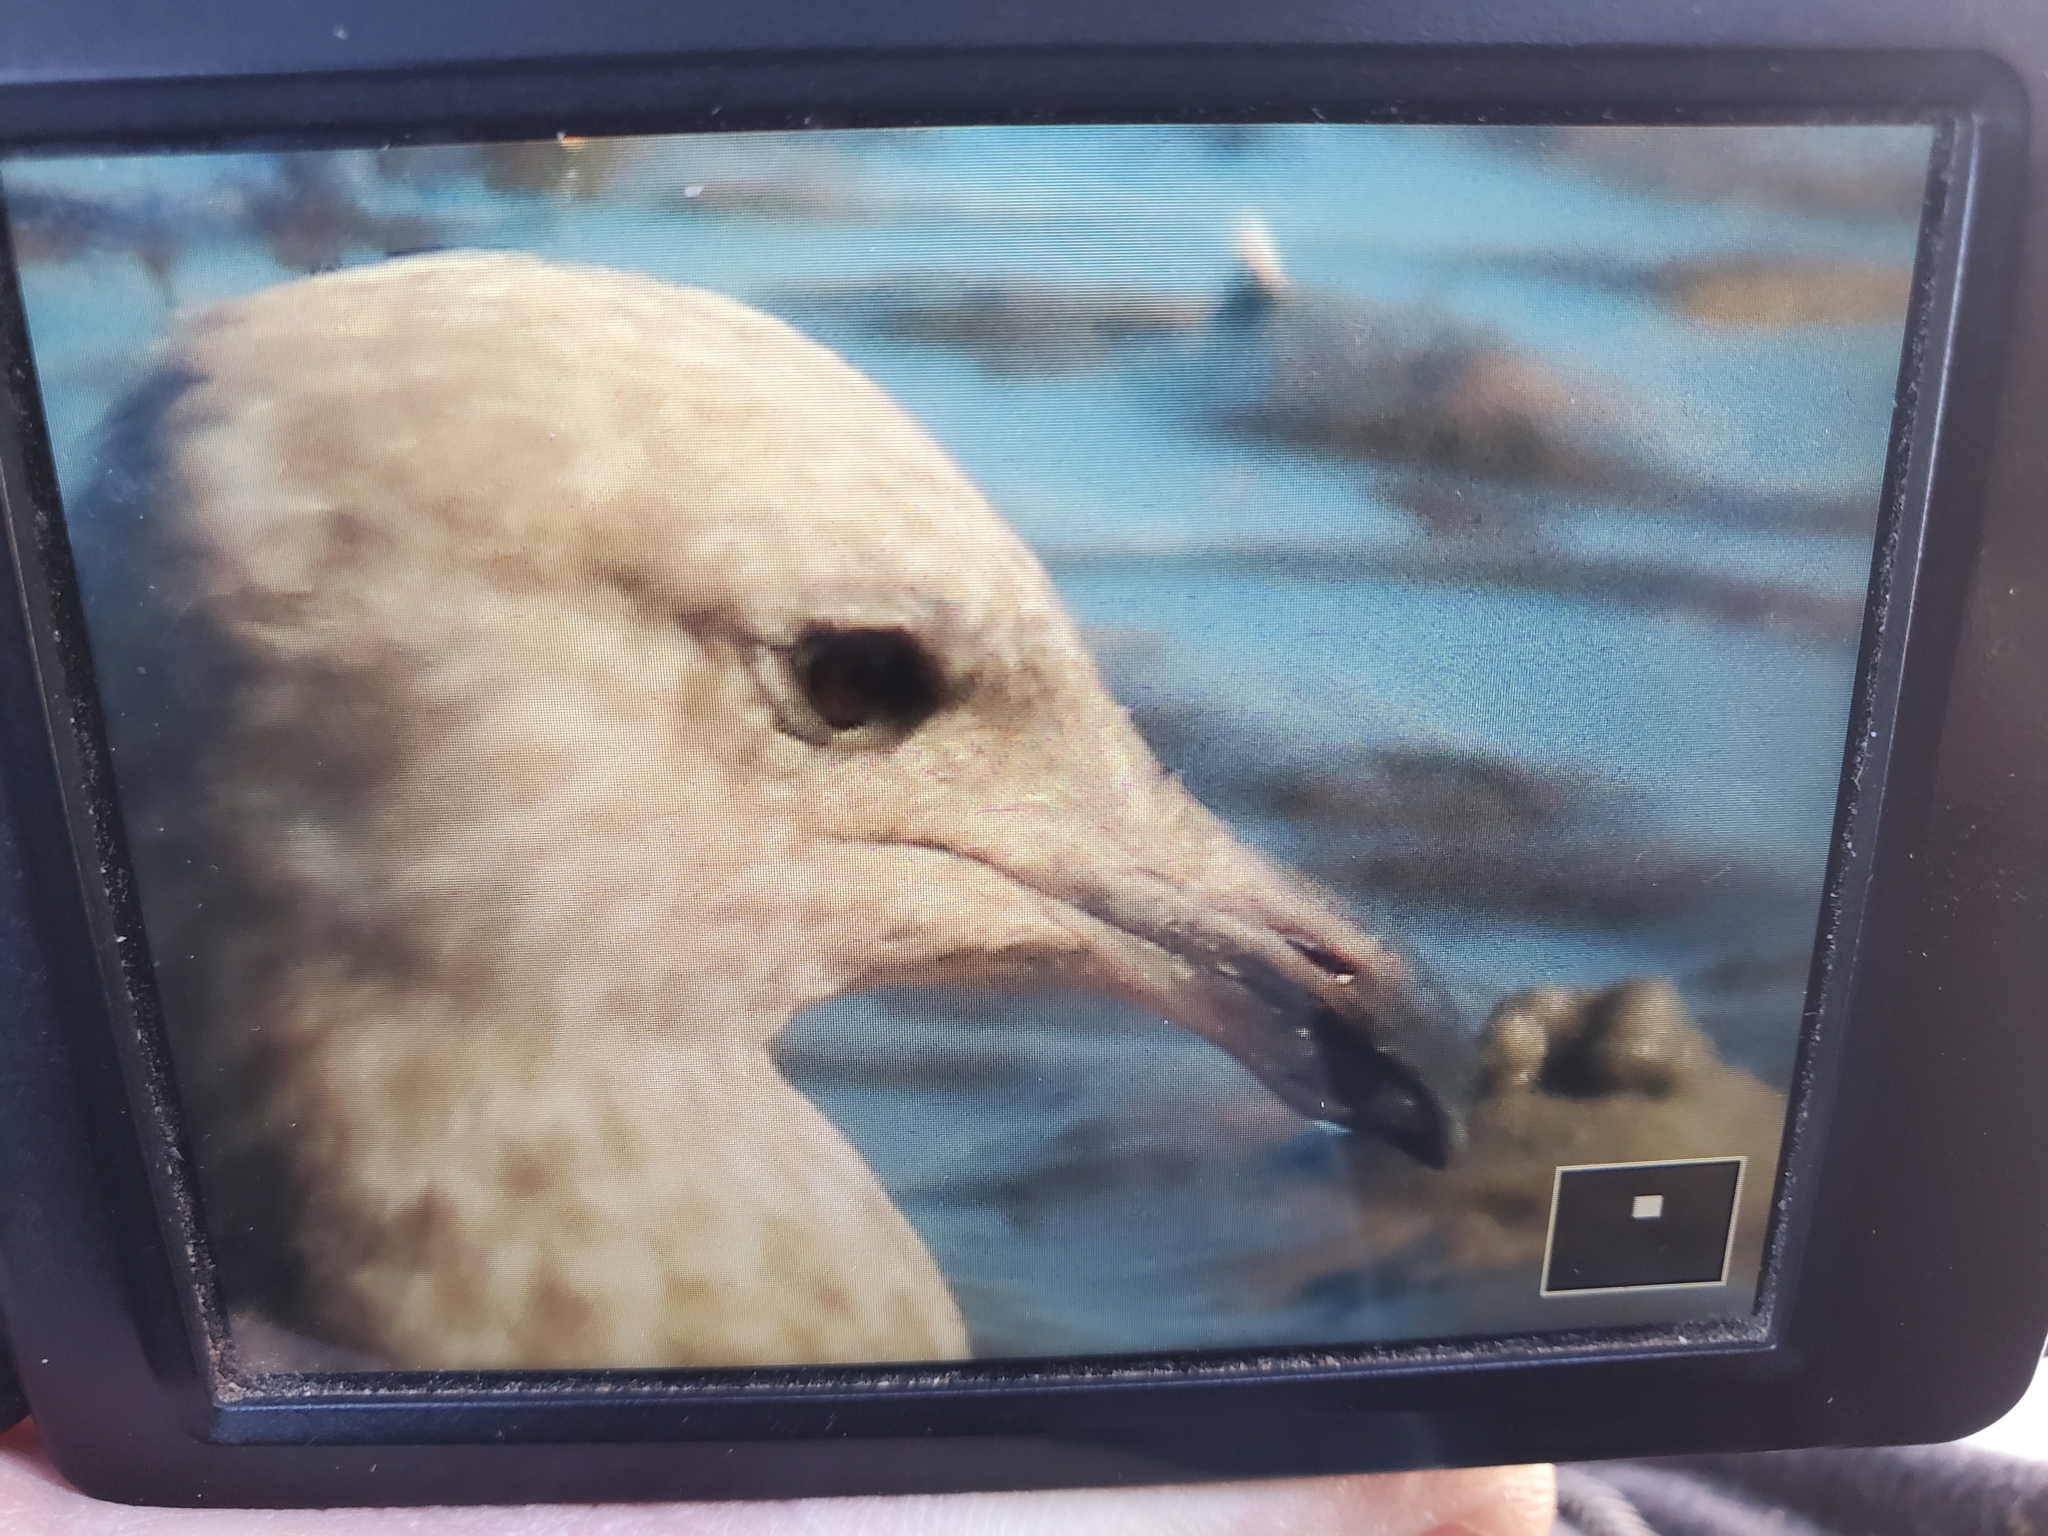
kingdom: Animalia
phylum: Chordata
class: Aves
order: Charadriiformes
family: Laridae
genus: Larus
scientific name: Larus smithsonianus
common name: American herring gull
